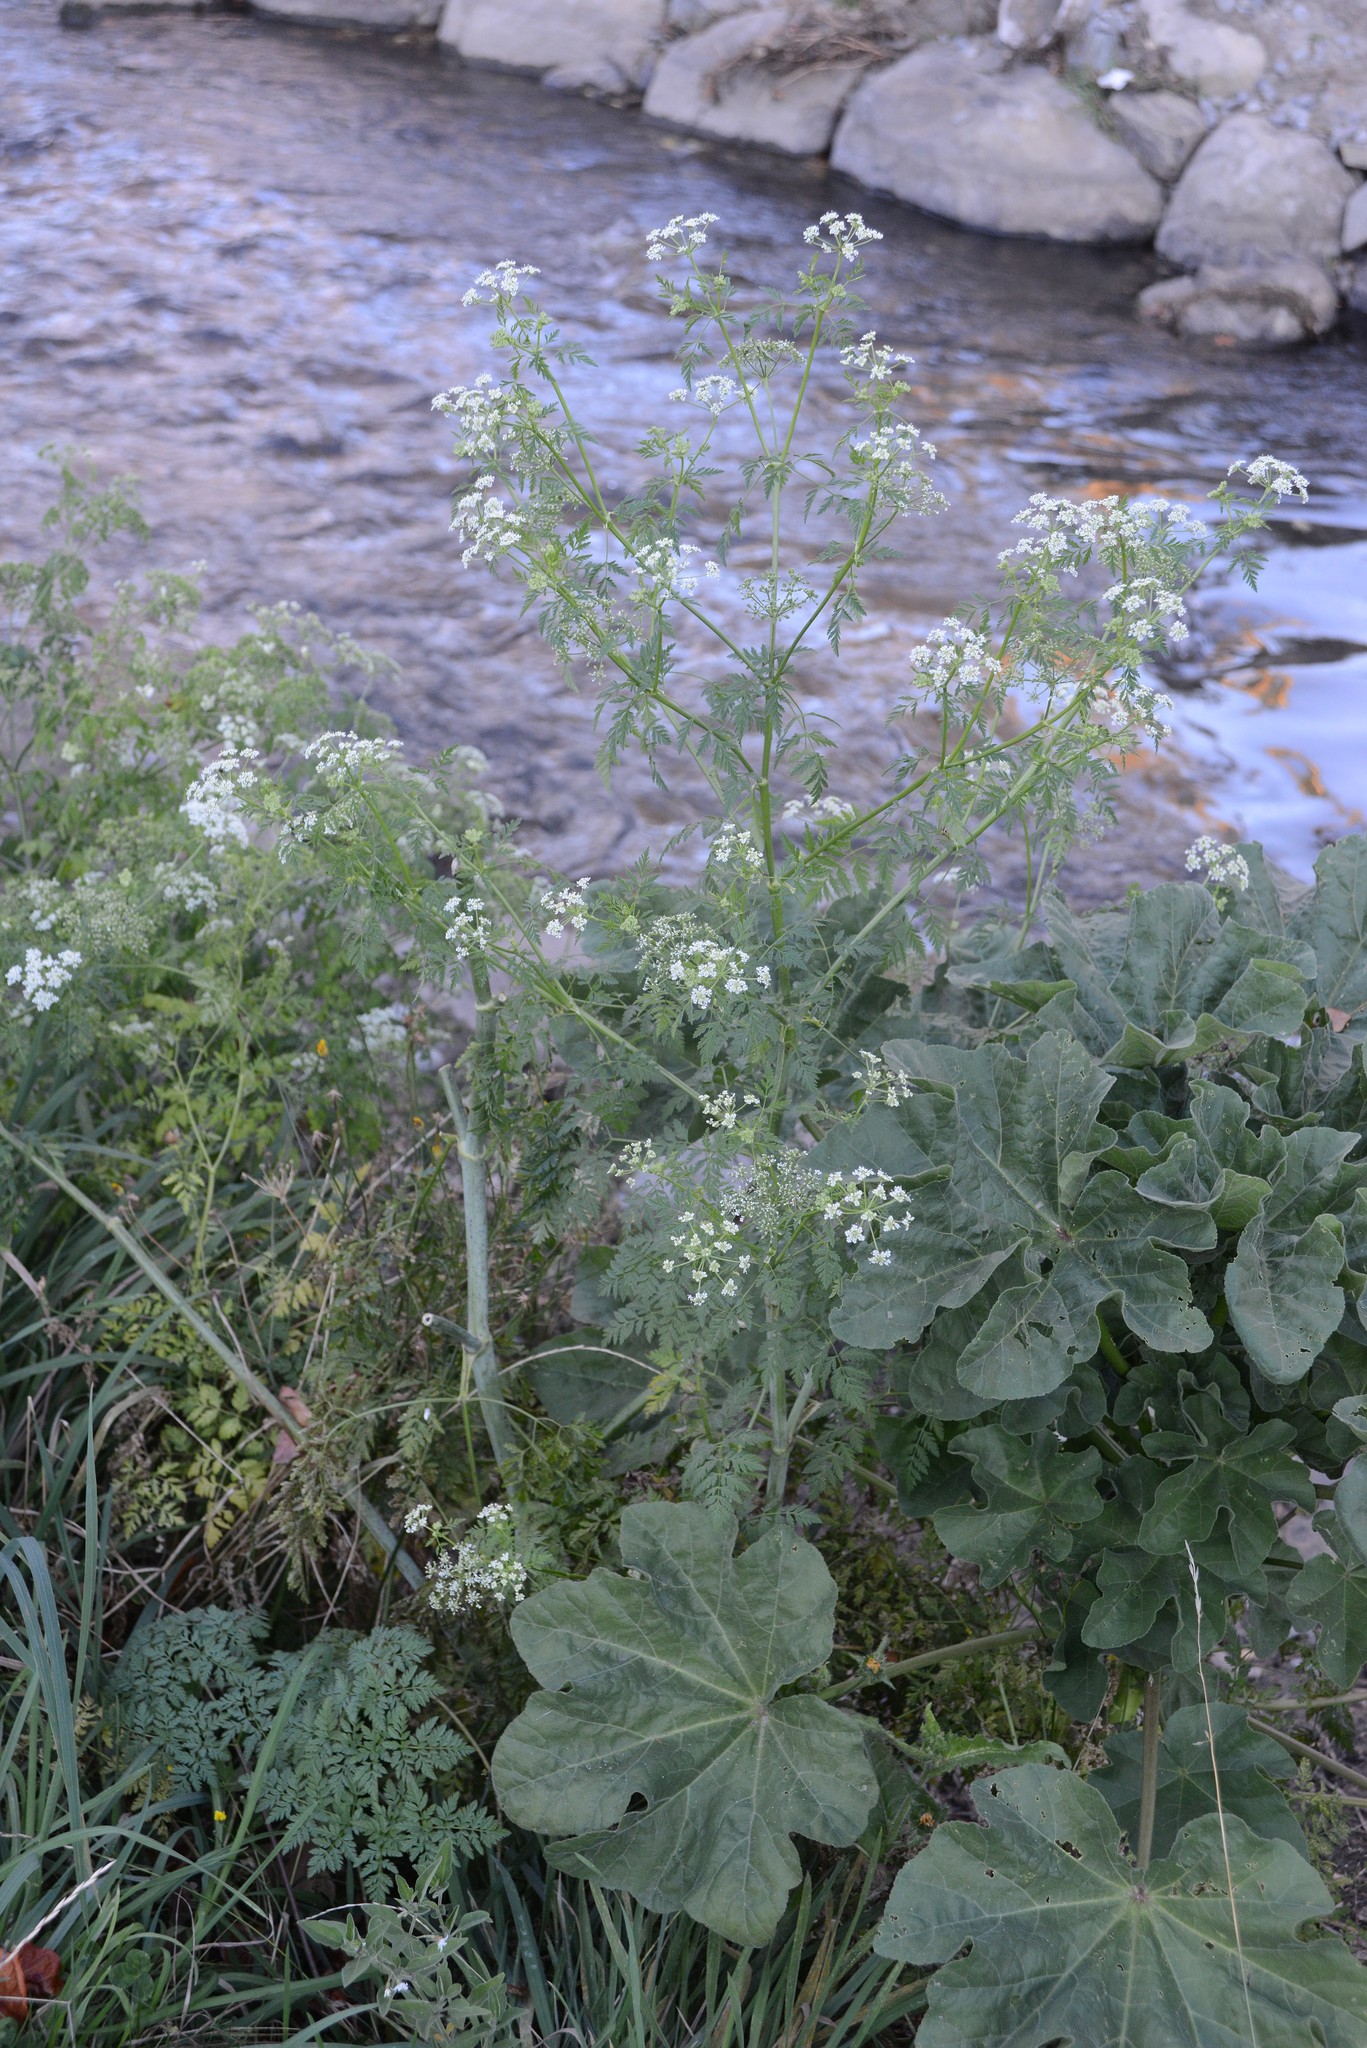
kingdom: Plantae
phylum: Tracheophyta
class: Magnoliopsida
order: Apiales
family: Apiaceae
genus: Conium
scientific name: Conium maculatum
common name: Hemlock
